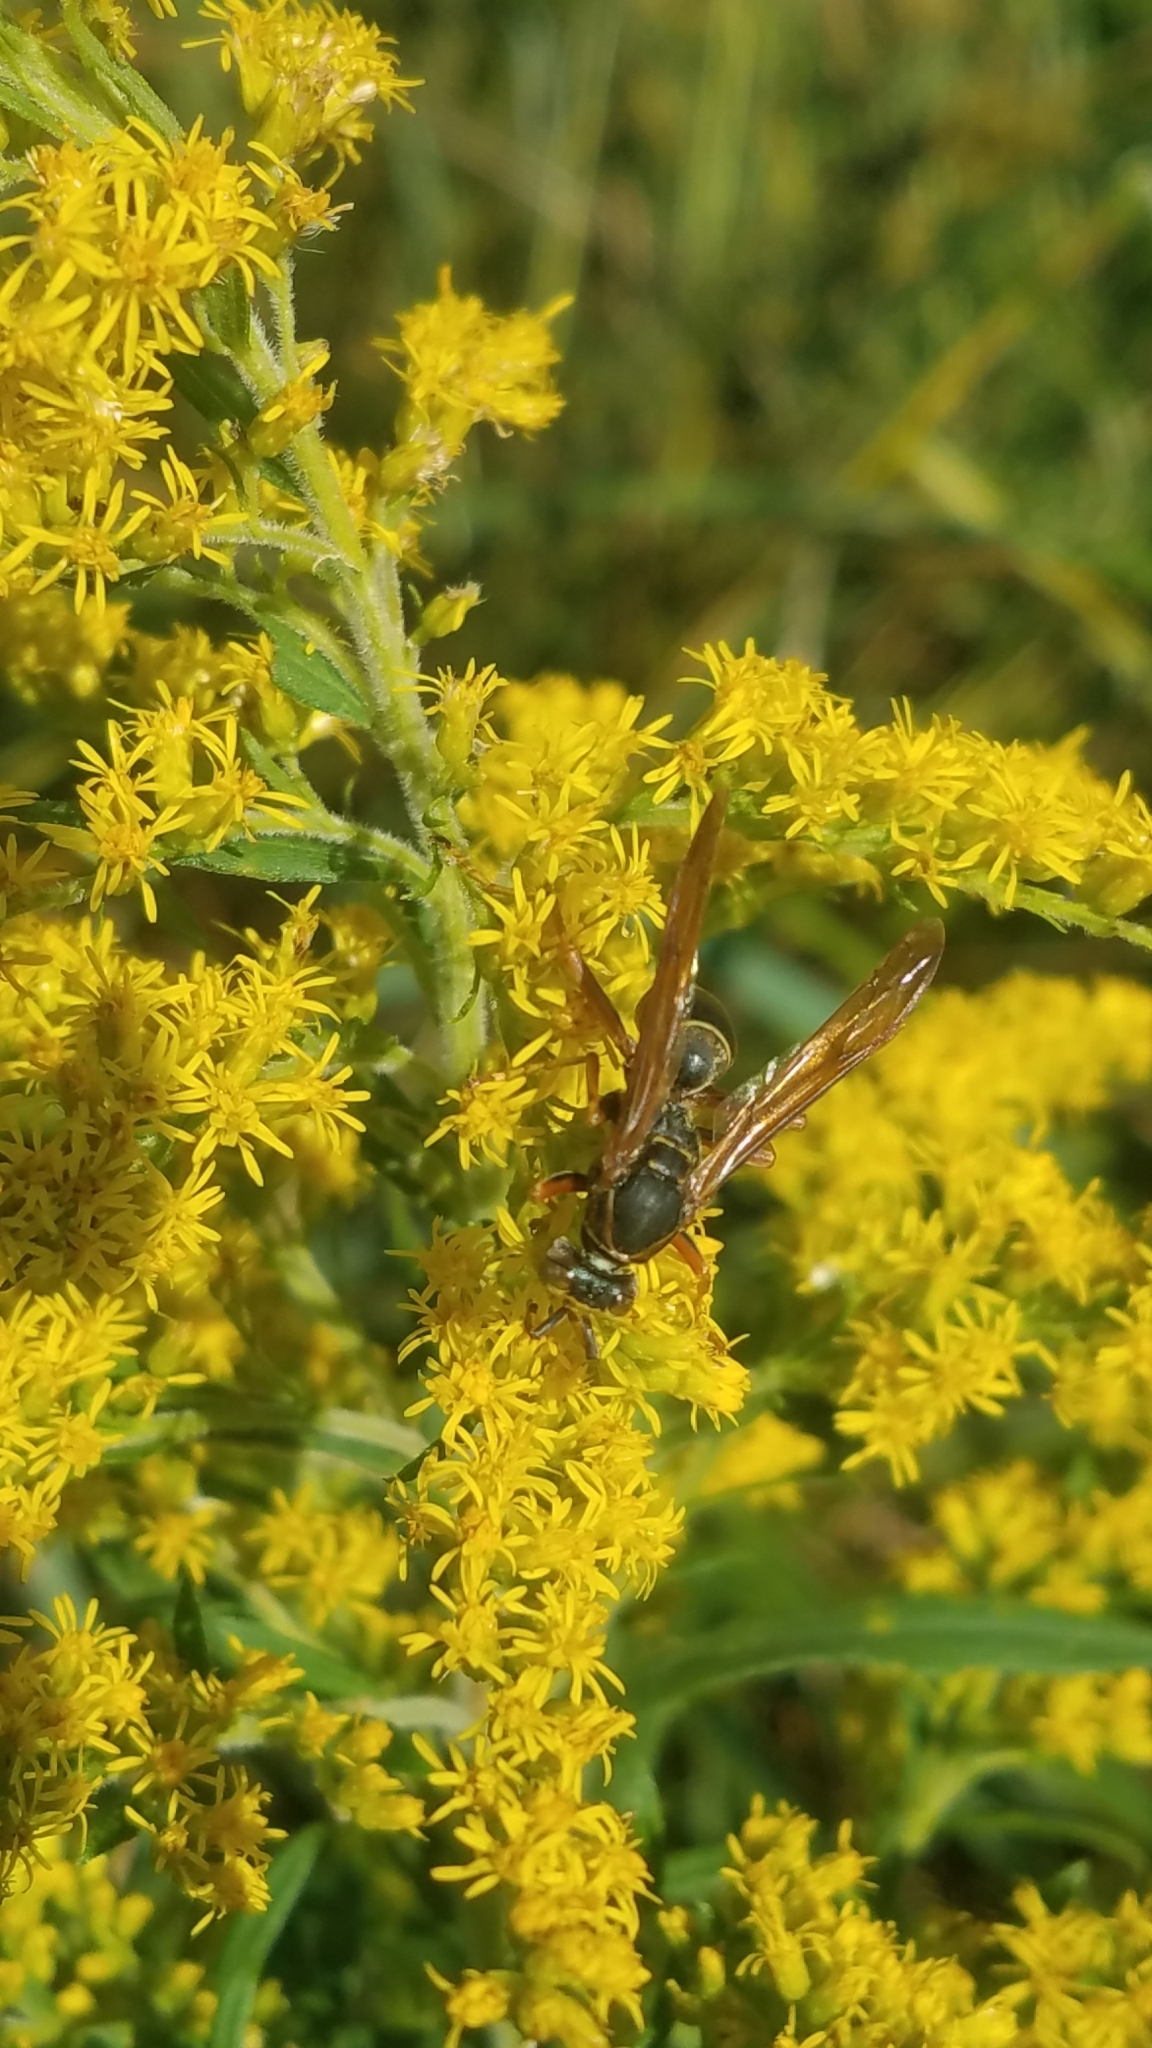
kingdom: Animalia
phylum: Arthropoda
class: Insecta
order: Hymenoptera
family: Eumenidae
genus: Polistes
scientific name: Polistes fuscatus
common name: Dark paper wasp
